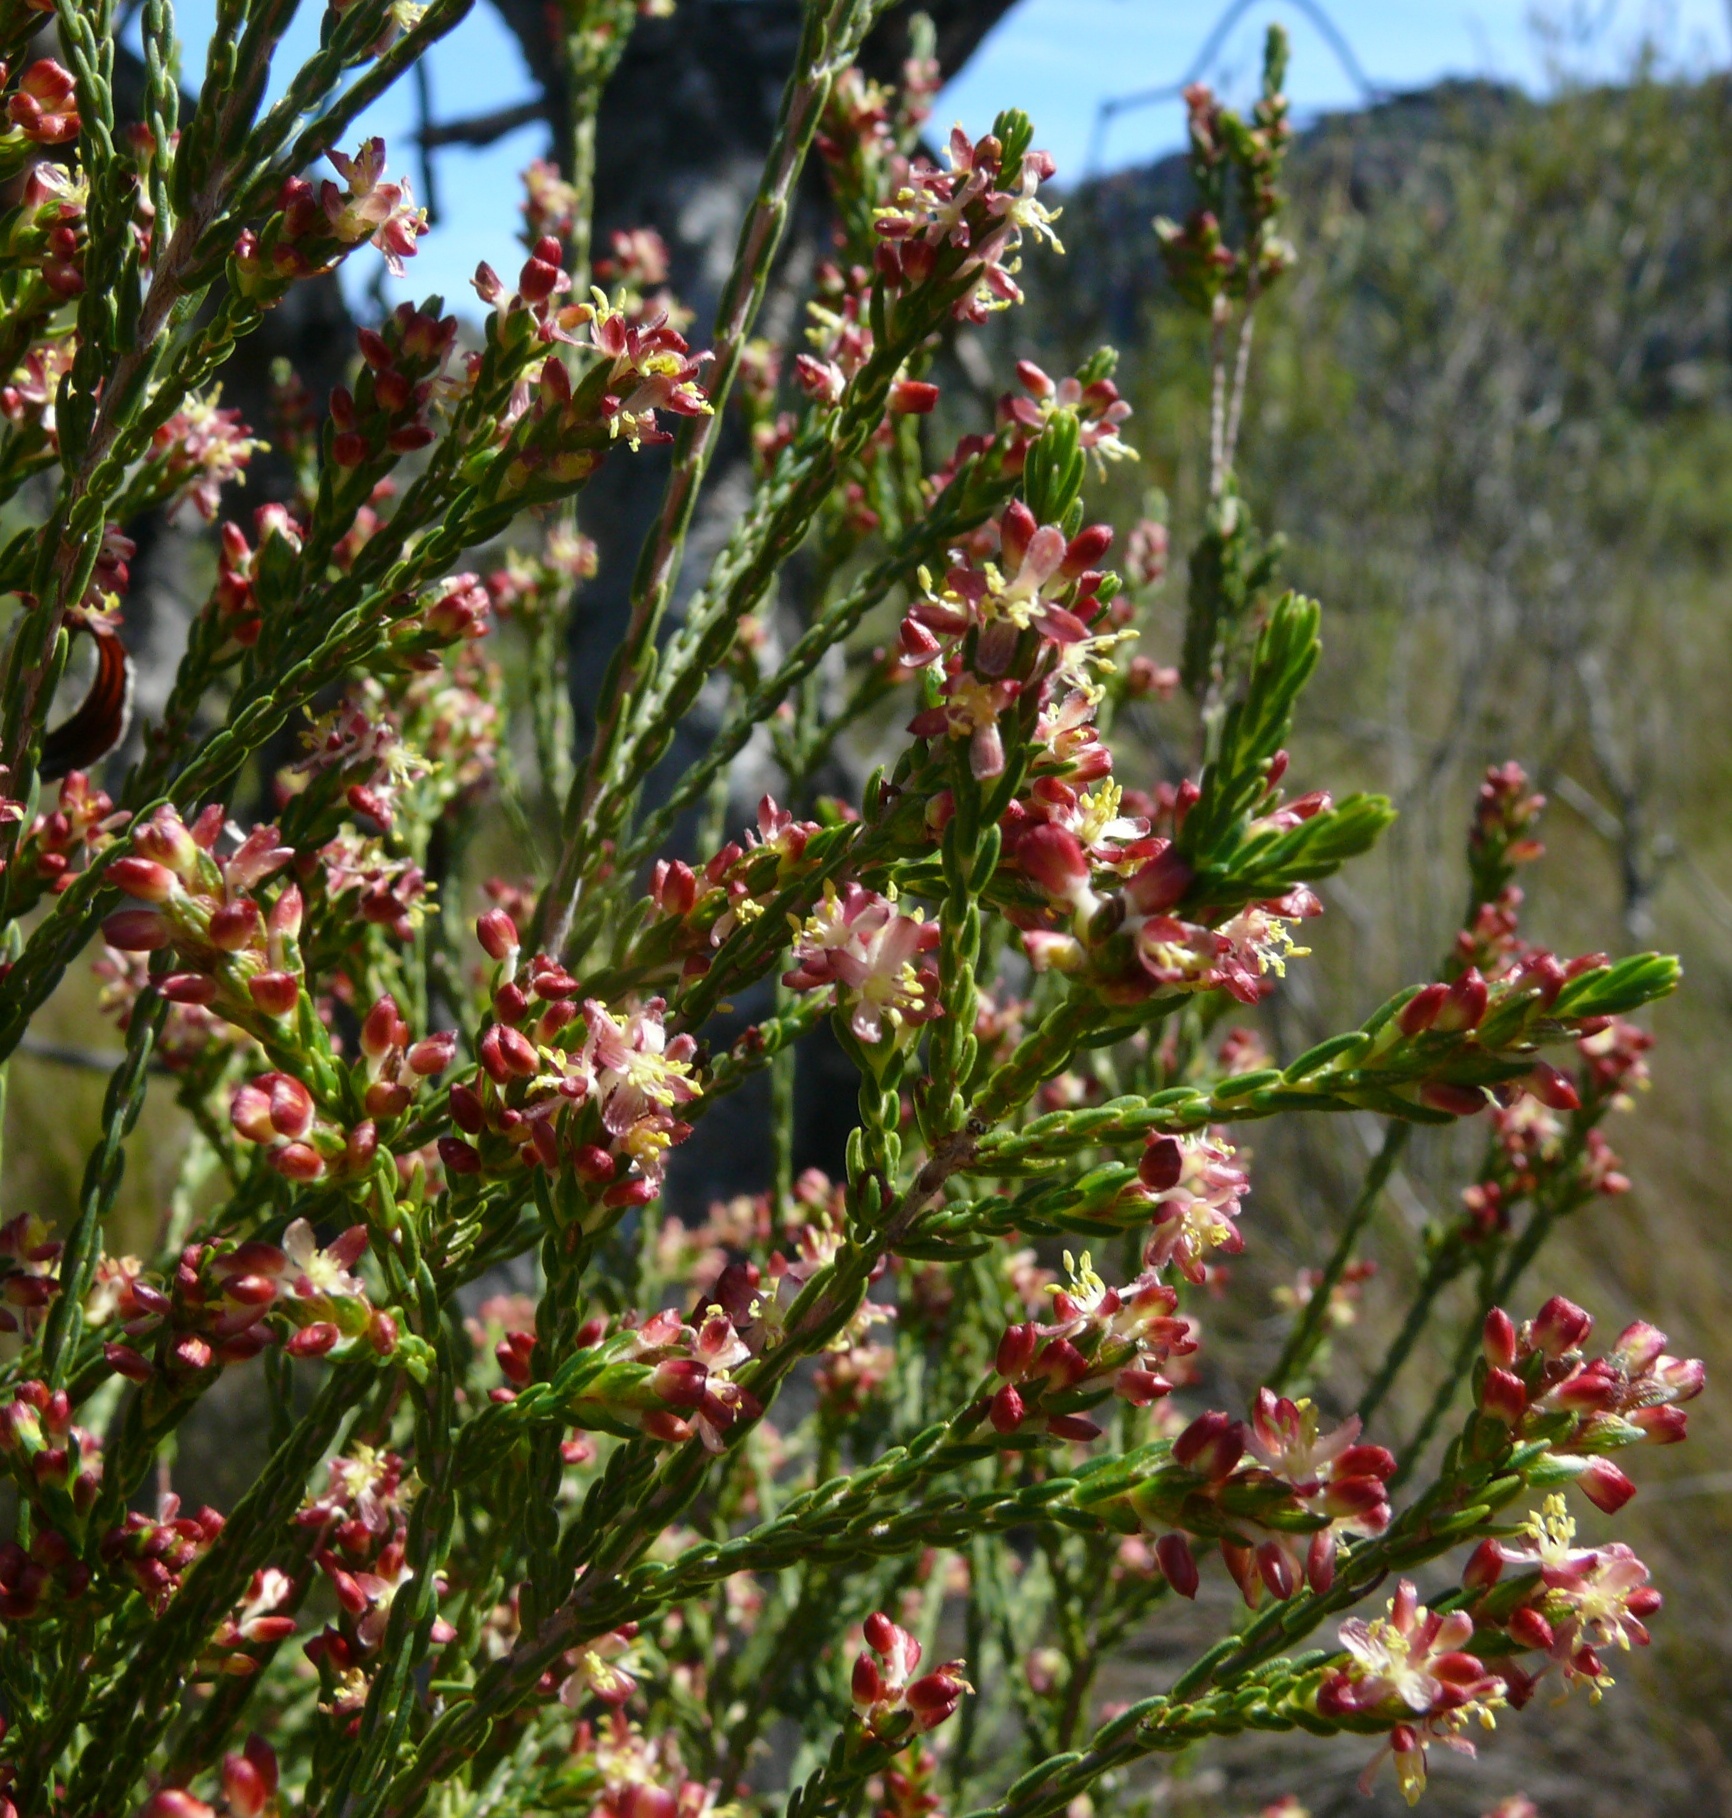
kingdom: Plantae
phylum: Tracheophyta
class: Magnoliopsida
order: Malvales
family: Thymelaeaceae
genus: Passerina
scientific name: Passerina filiformis
